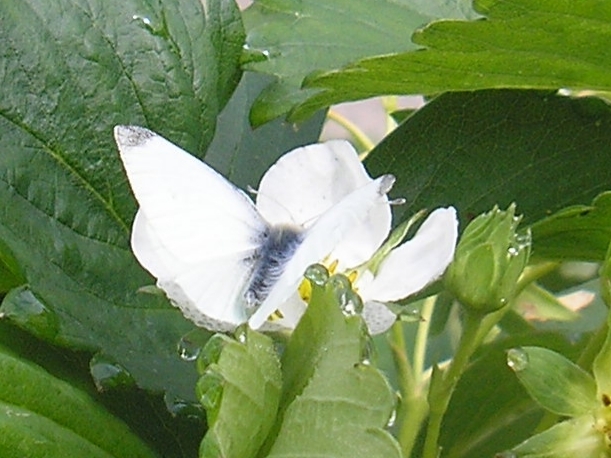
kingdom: Animalia
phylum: Arthropoda
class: Insecta
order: Lepidoptera
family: Pieridae
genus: Pieris
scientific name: Pieris rapae
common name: Small white
